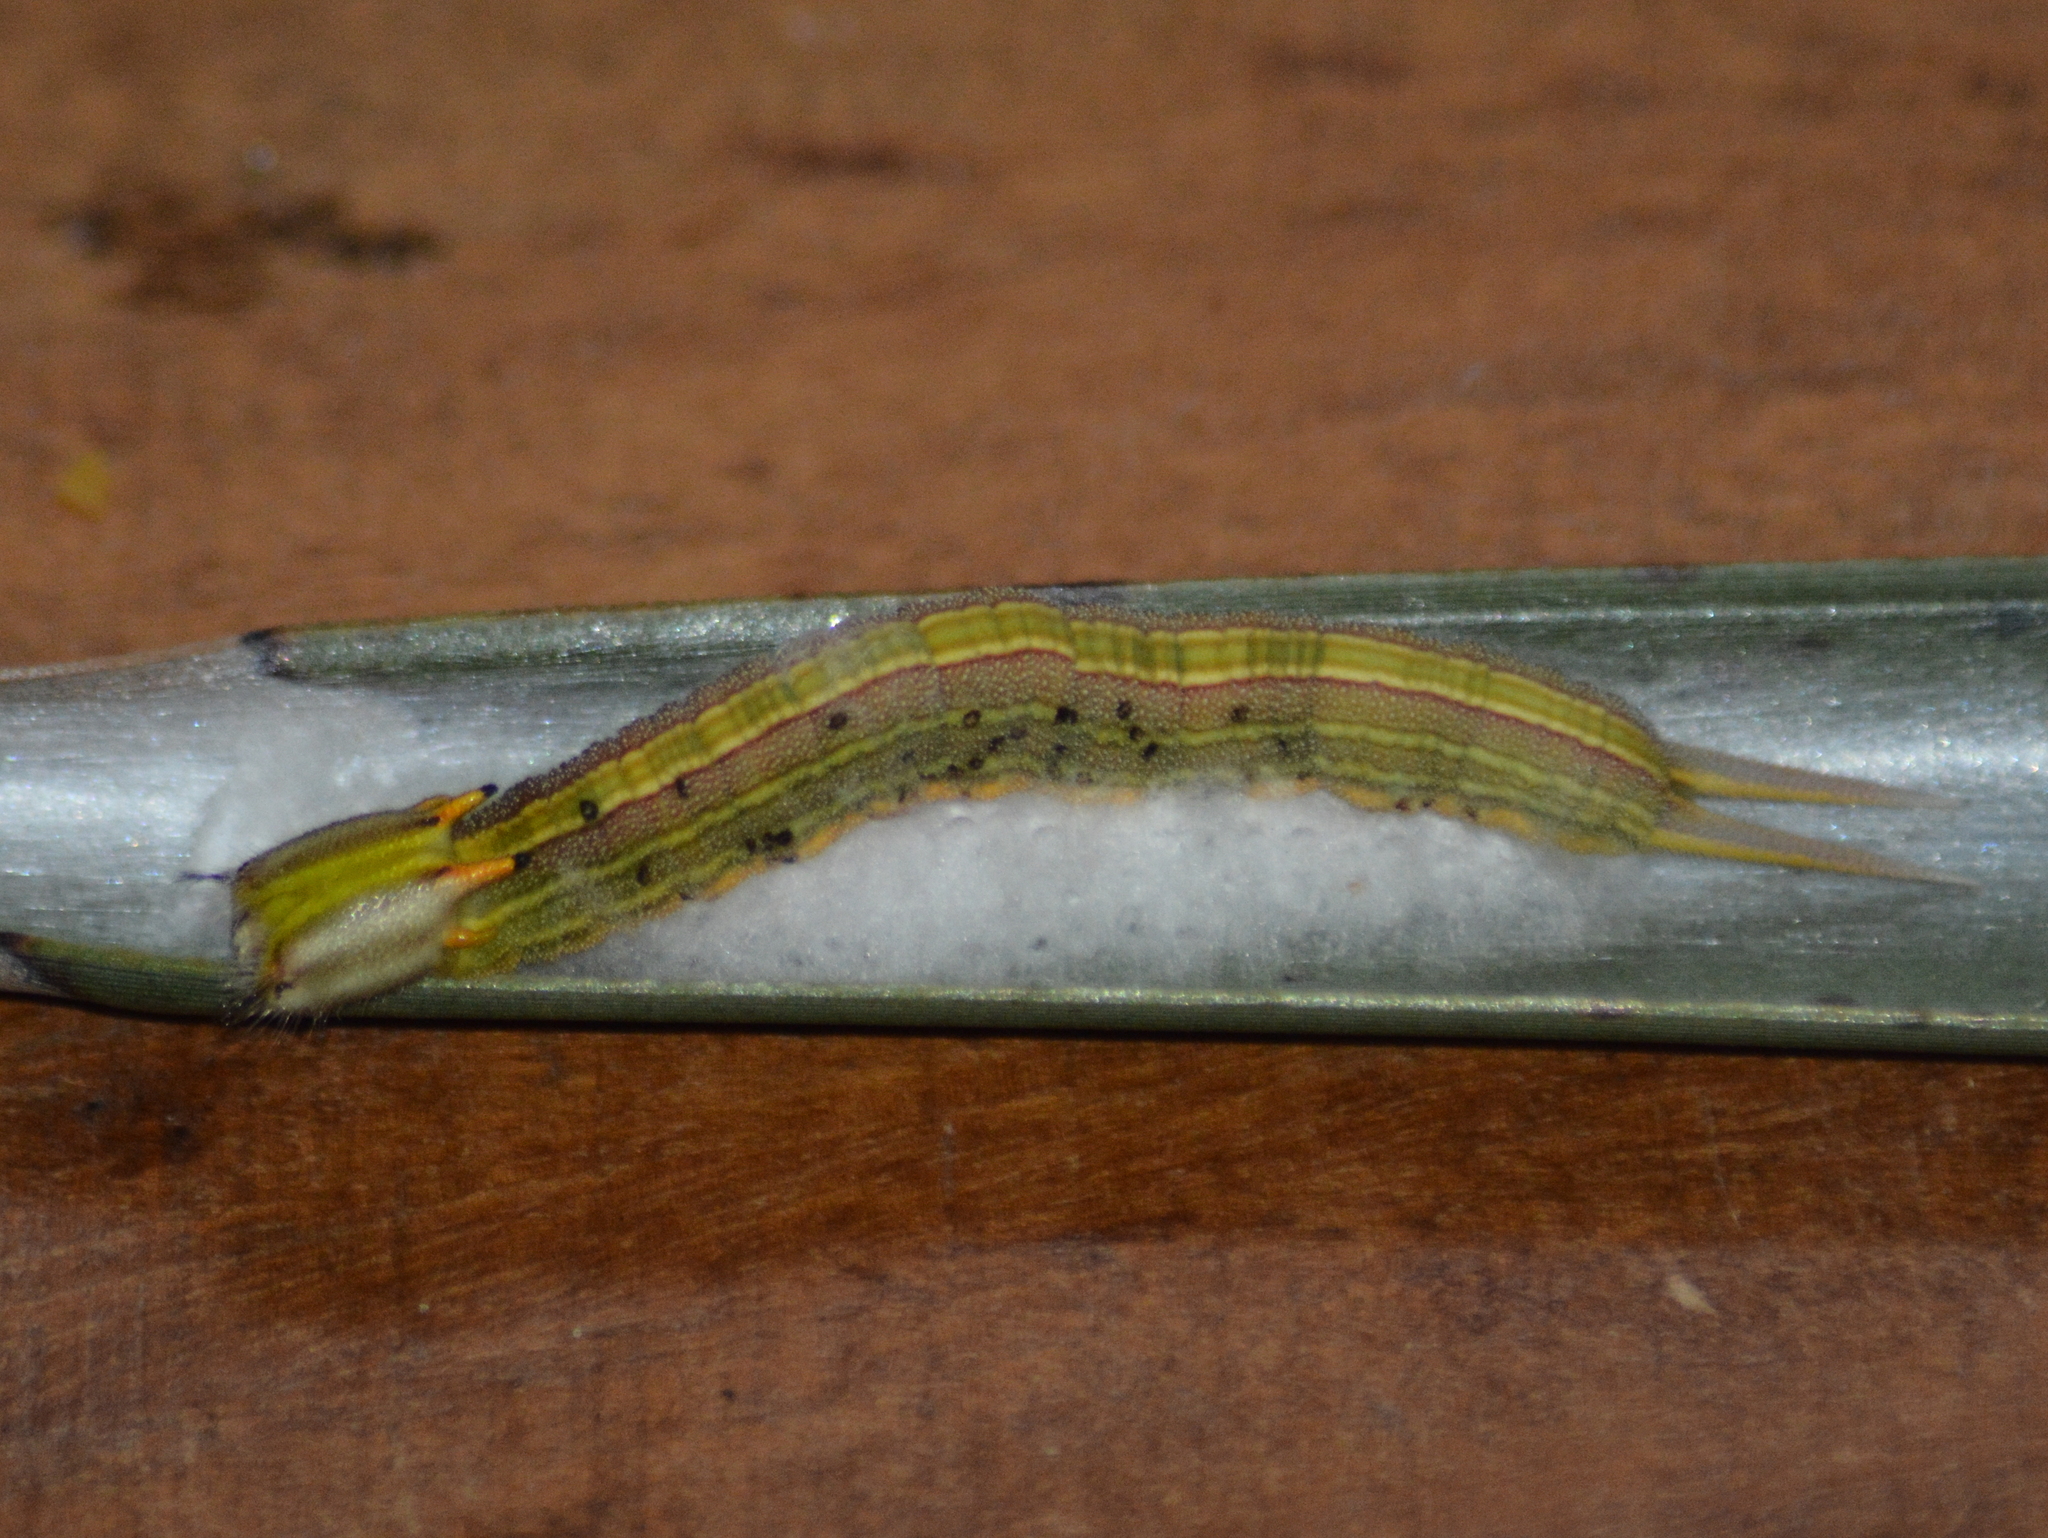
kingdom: Animalia
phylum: Arthropoda
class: Insecta
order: Lepidoptera
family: Nymphalidae
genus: Opsiphanes
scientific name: Opsiphanes invirae
